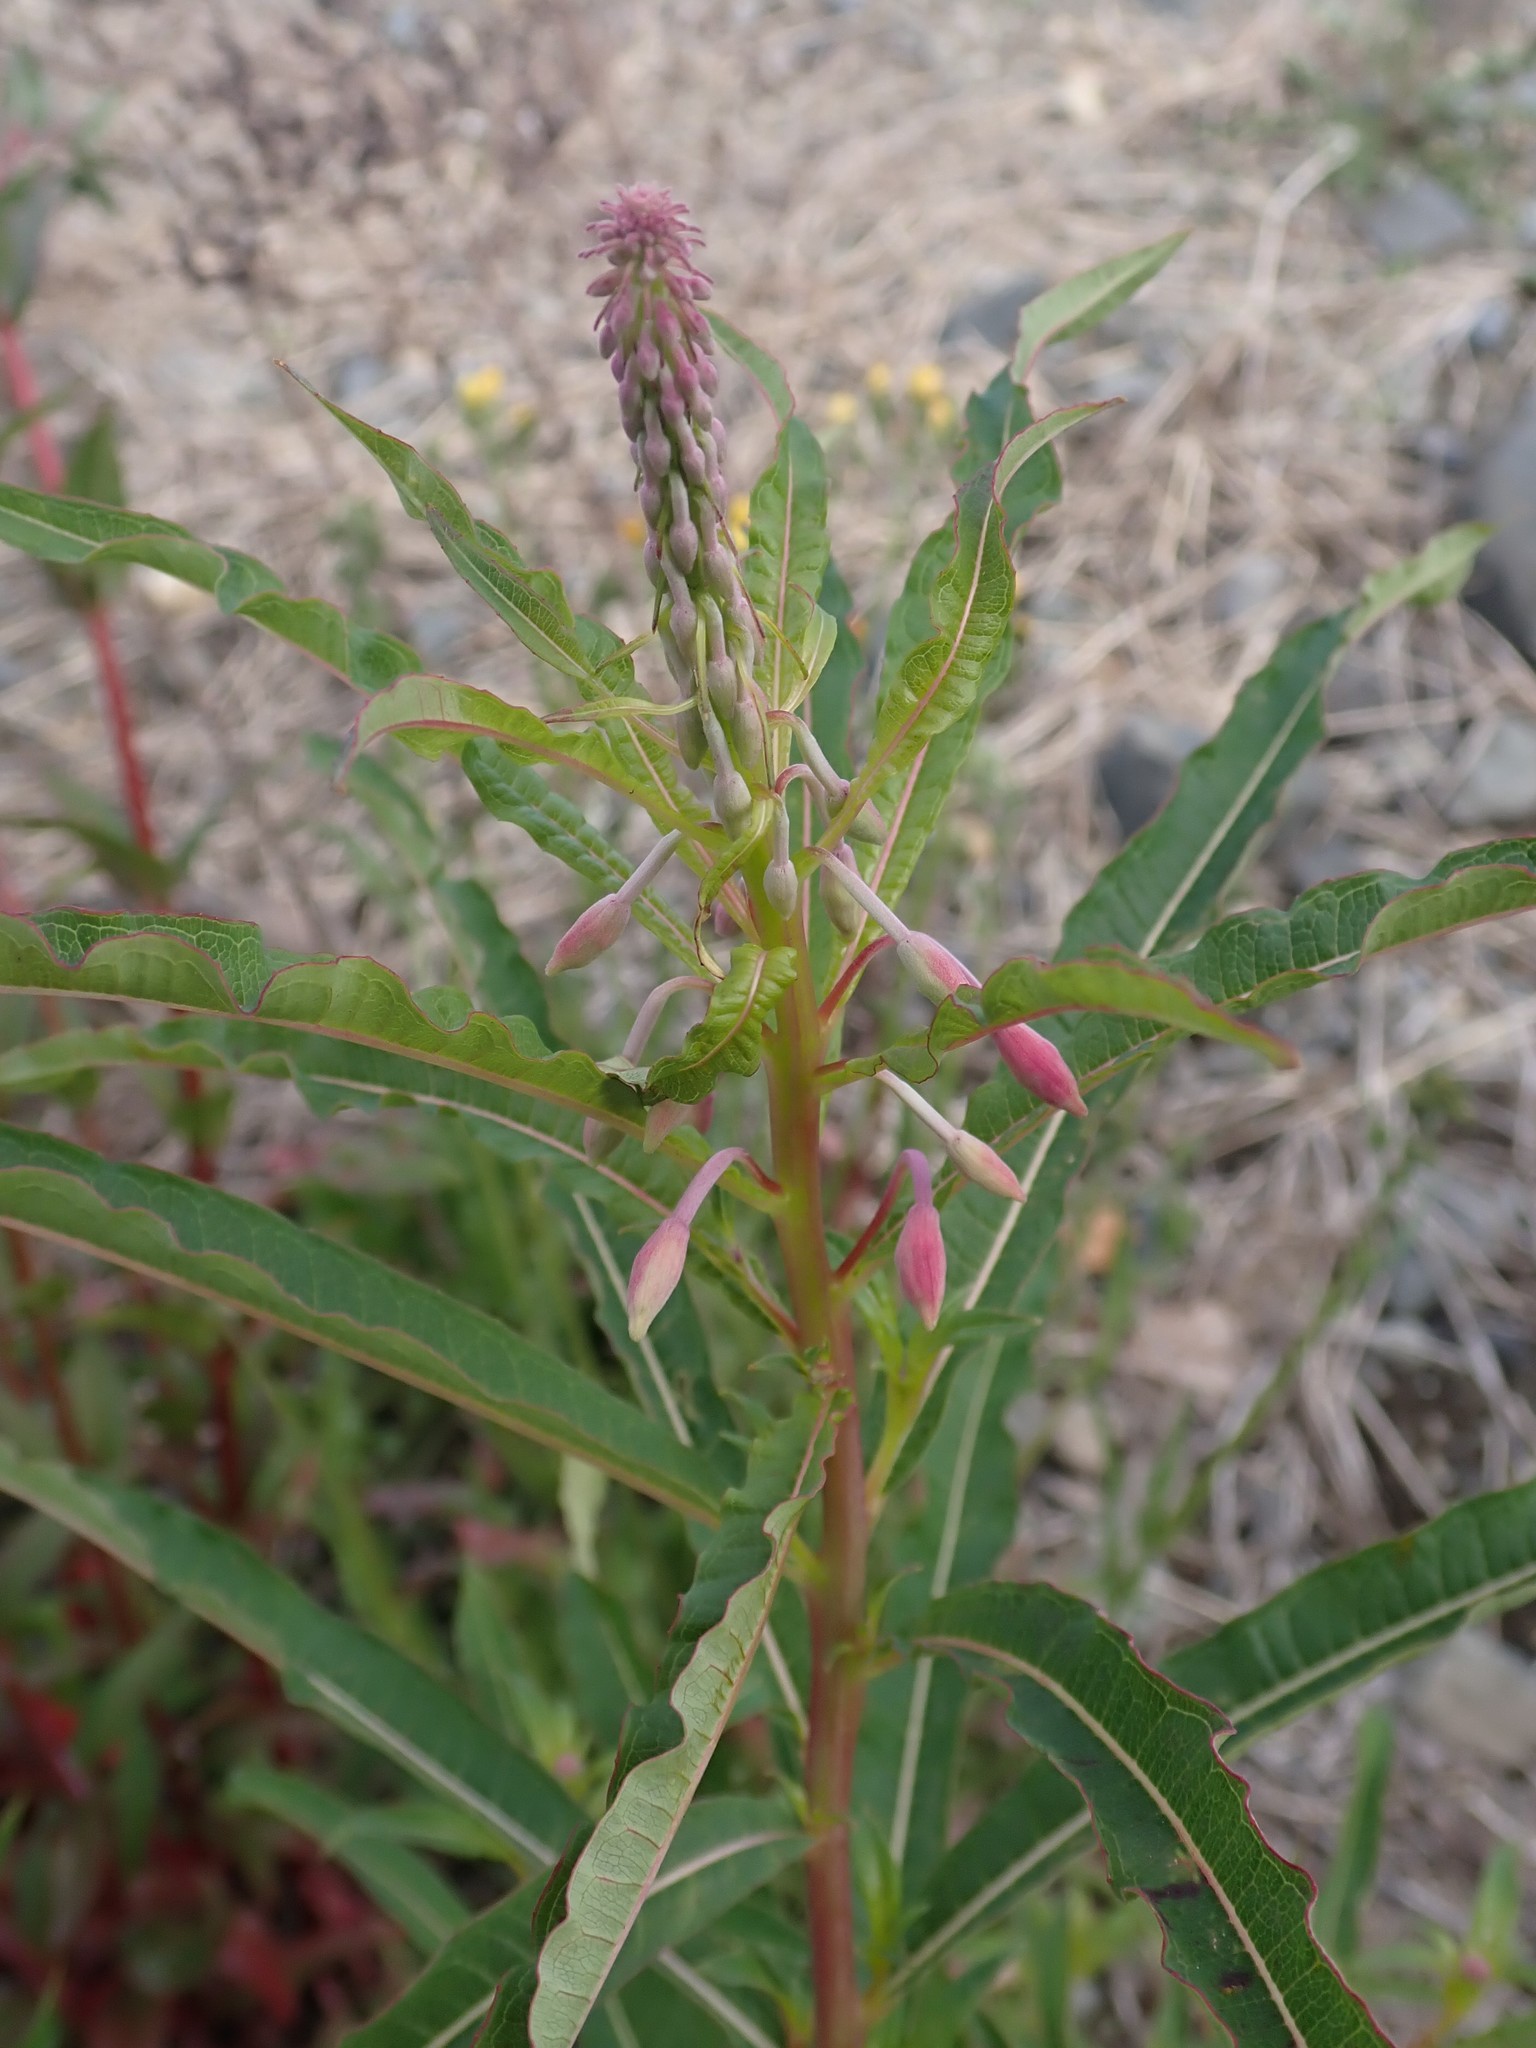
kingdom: Plantae
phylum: Tracheophyta
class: Magnoliopsida
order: Myrtales
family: Onagraceae
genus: Chamaenerion
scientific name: Chamaenerion angustifolium
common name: Fireweed
